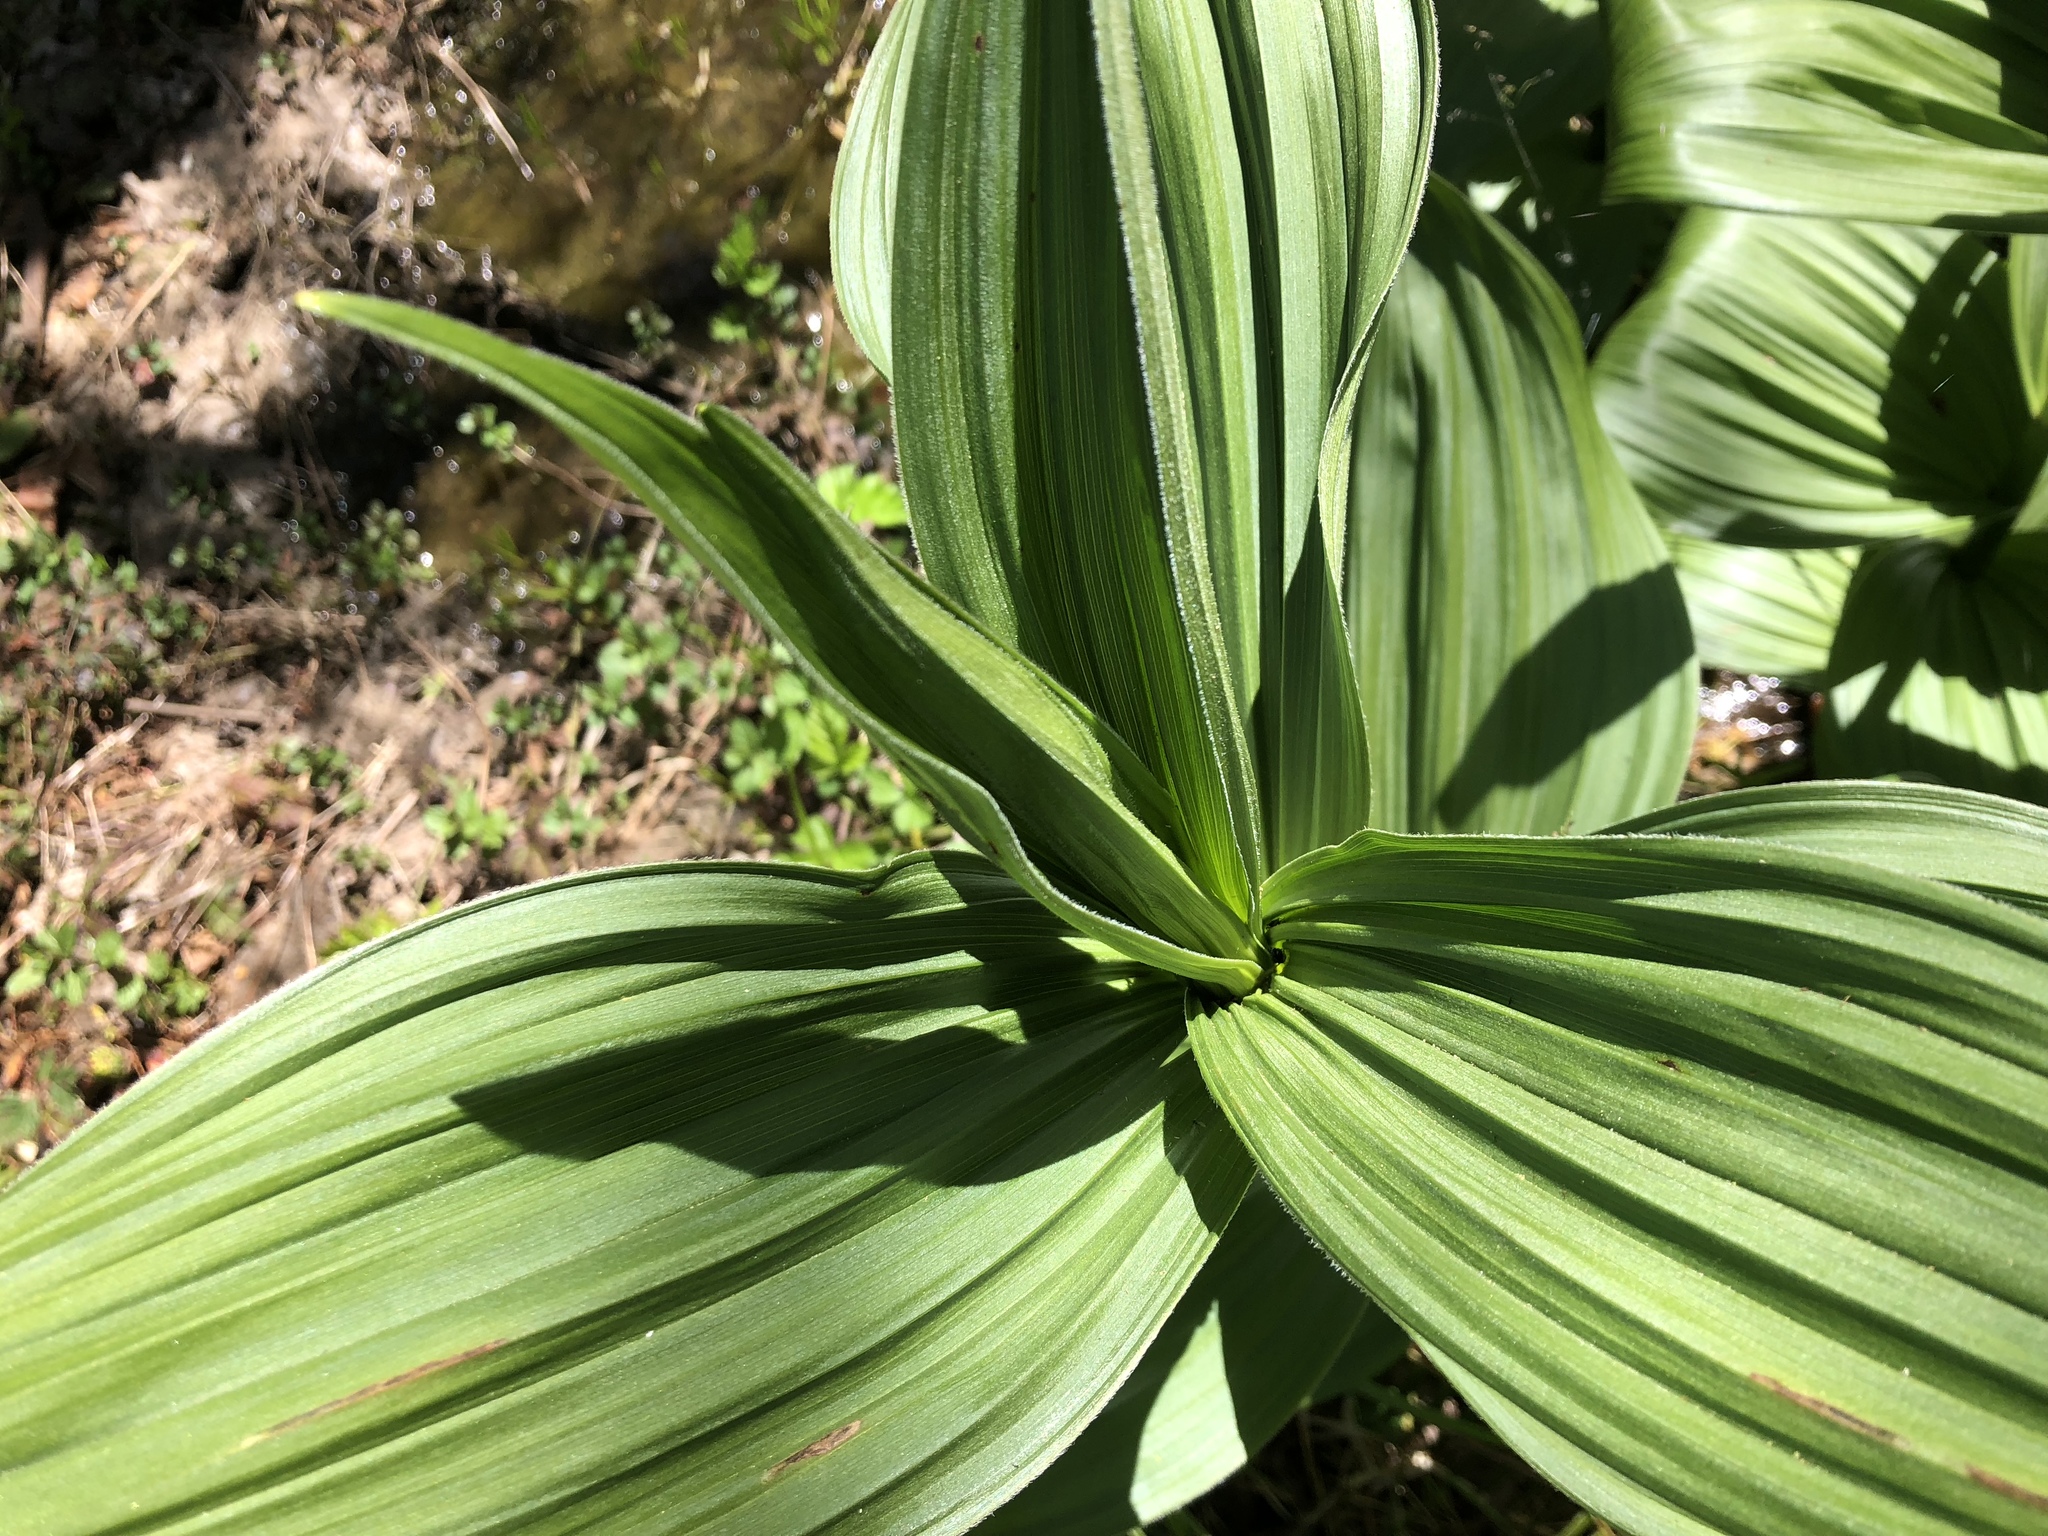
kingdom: Plantae
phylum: Tracheophyta
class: Liliopsida
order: Liliales
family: Melanthiaceae
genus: Veratrum
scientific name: Veratrum californicum
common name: California veratrum
